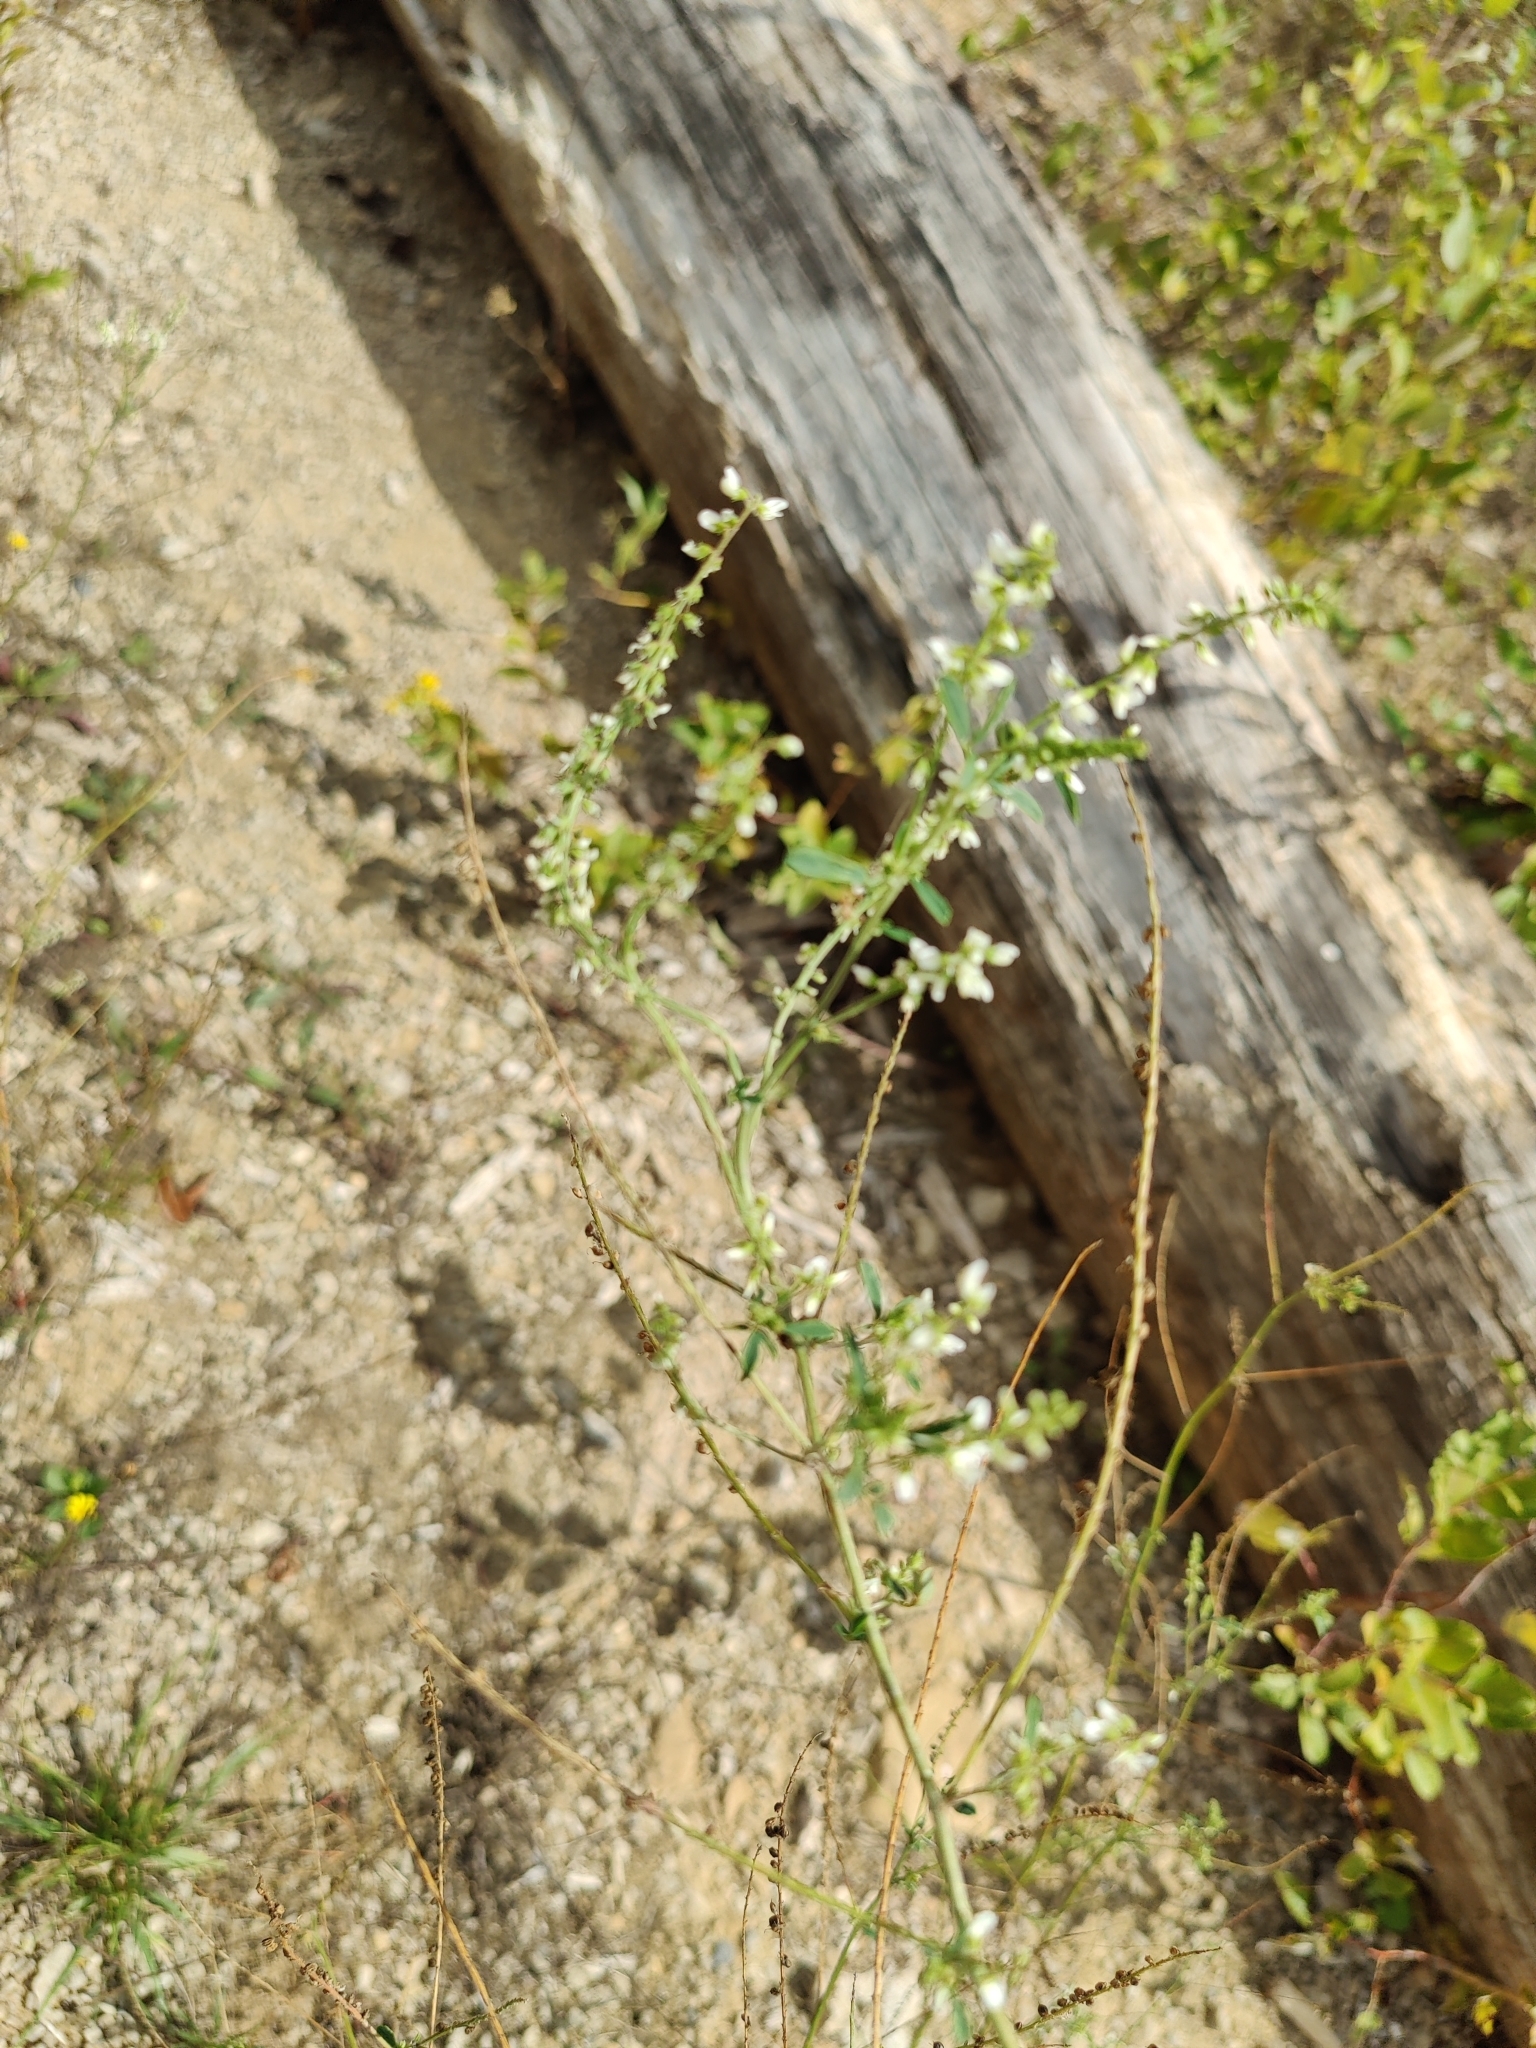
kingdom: Plantae
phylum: Tracheophyta
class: Magnoliopsida
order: Fabales
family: Fabaceae
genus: Melilotus
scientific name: Melilotus albus
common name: White melilot
